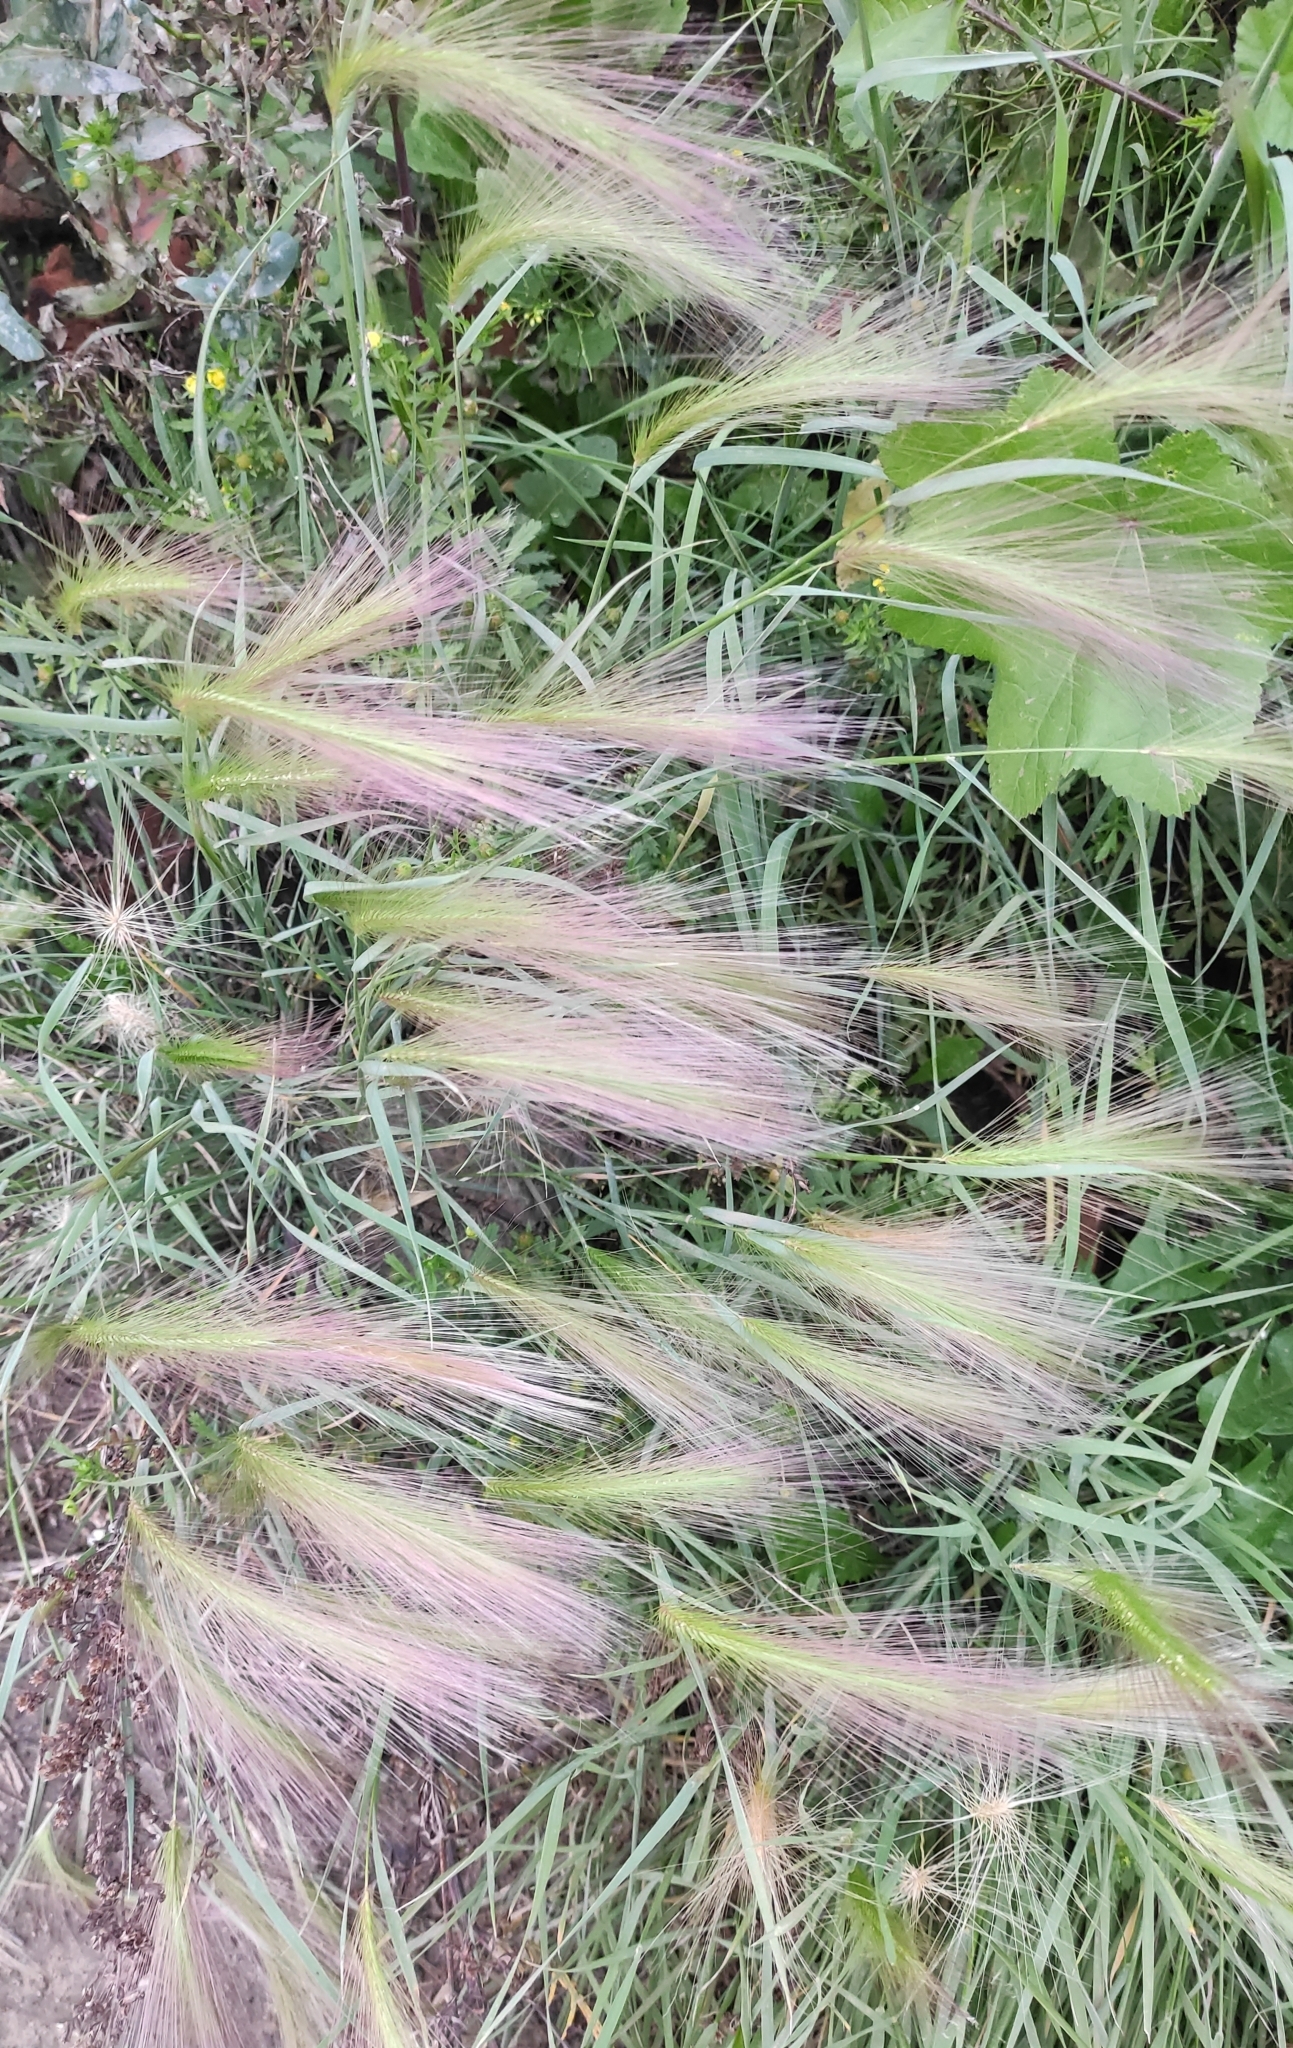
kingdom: Plantae
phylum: Tracheophyta
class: Liliopsida
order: Poales
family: Poaceae
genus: Hordeum
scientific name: Hordeum jubatum
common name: Foxtail barley
